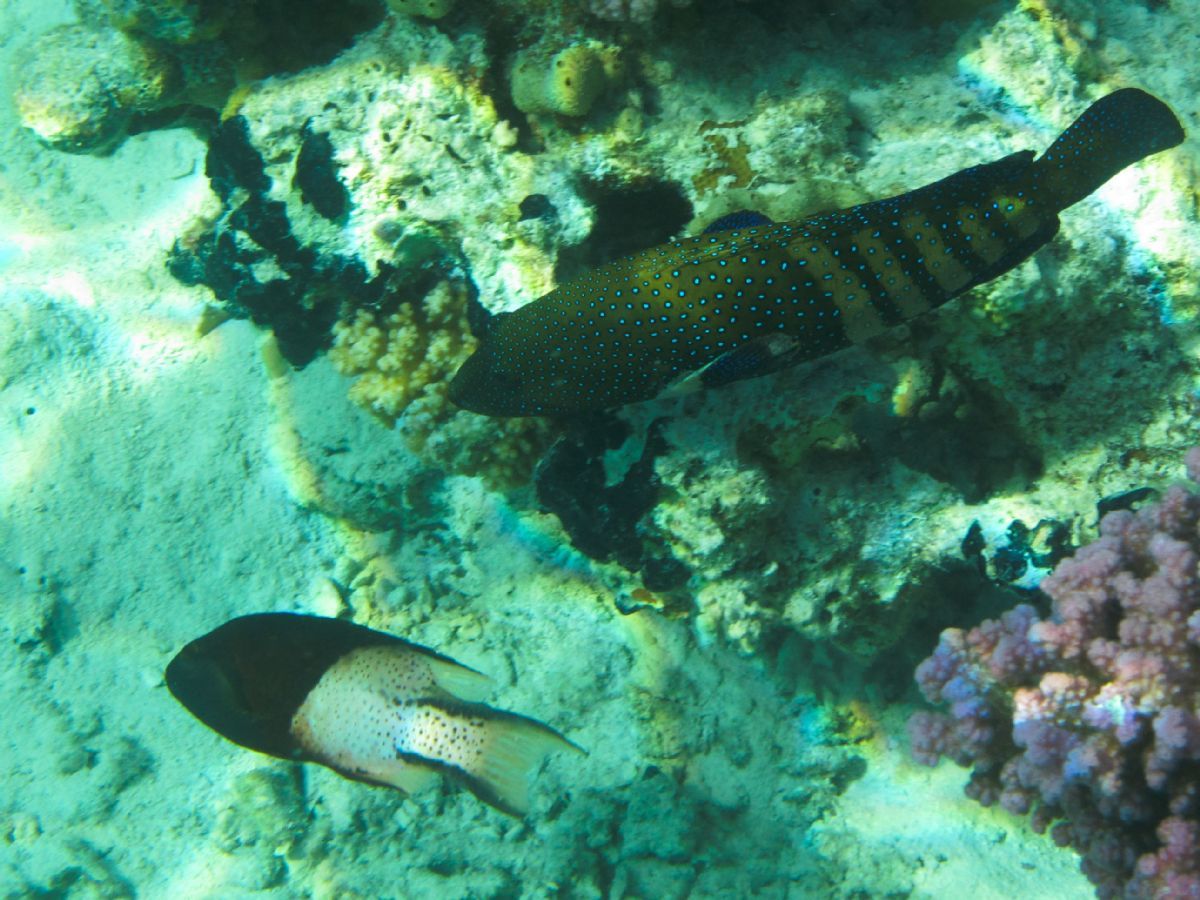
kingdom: Animalia
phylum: Chordata
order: Perciformes
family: Serranidae
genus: Cephalopholis
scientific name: Cephalopholis argus
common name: Peacock grouper
